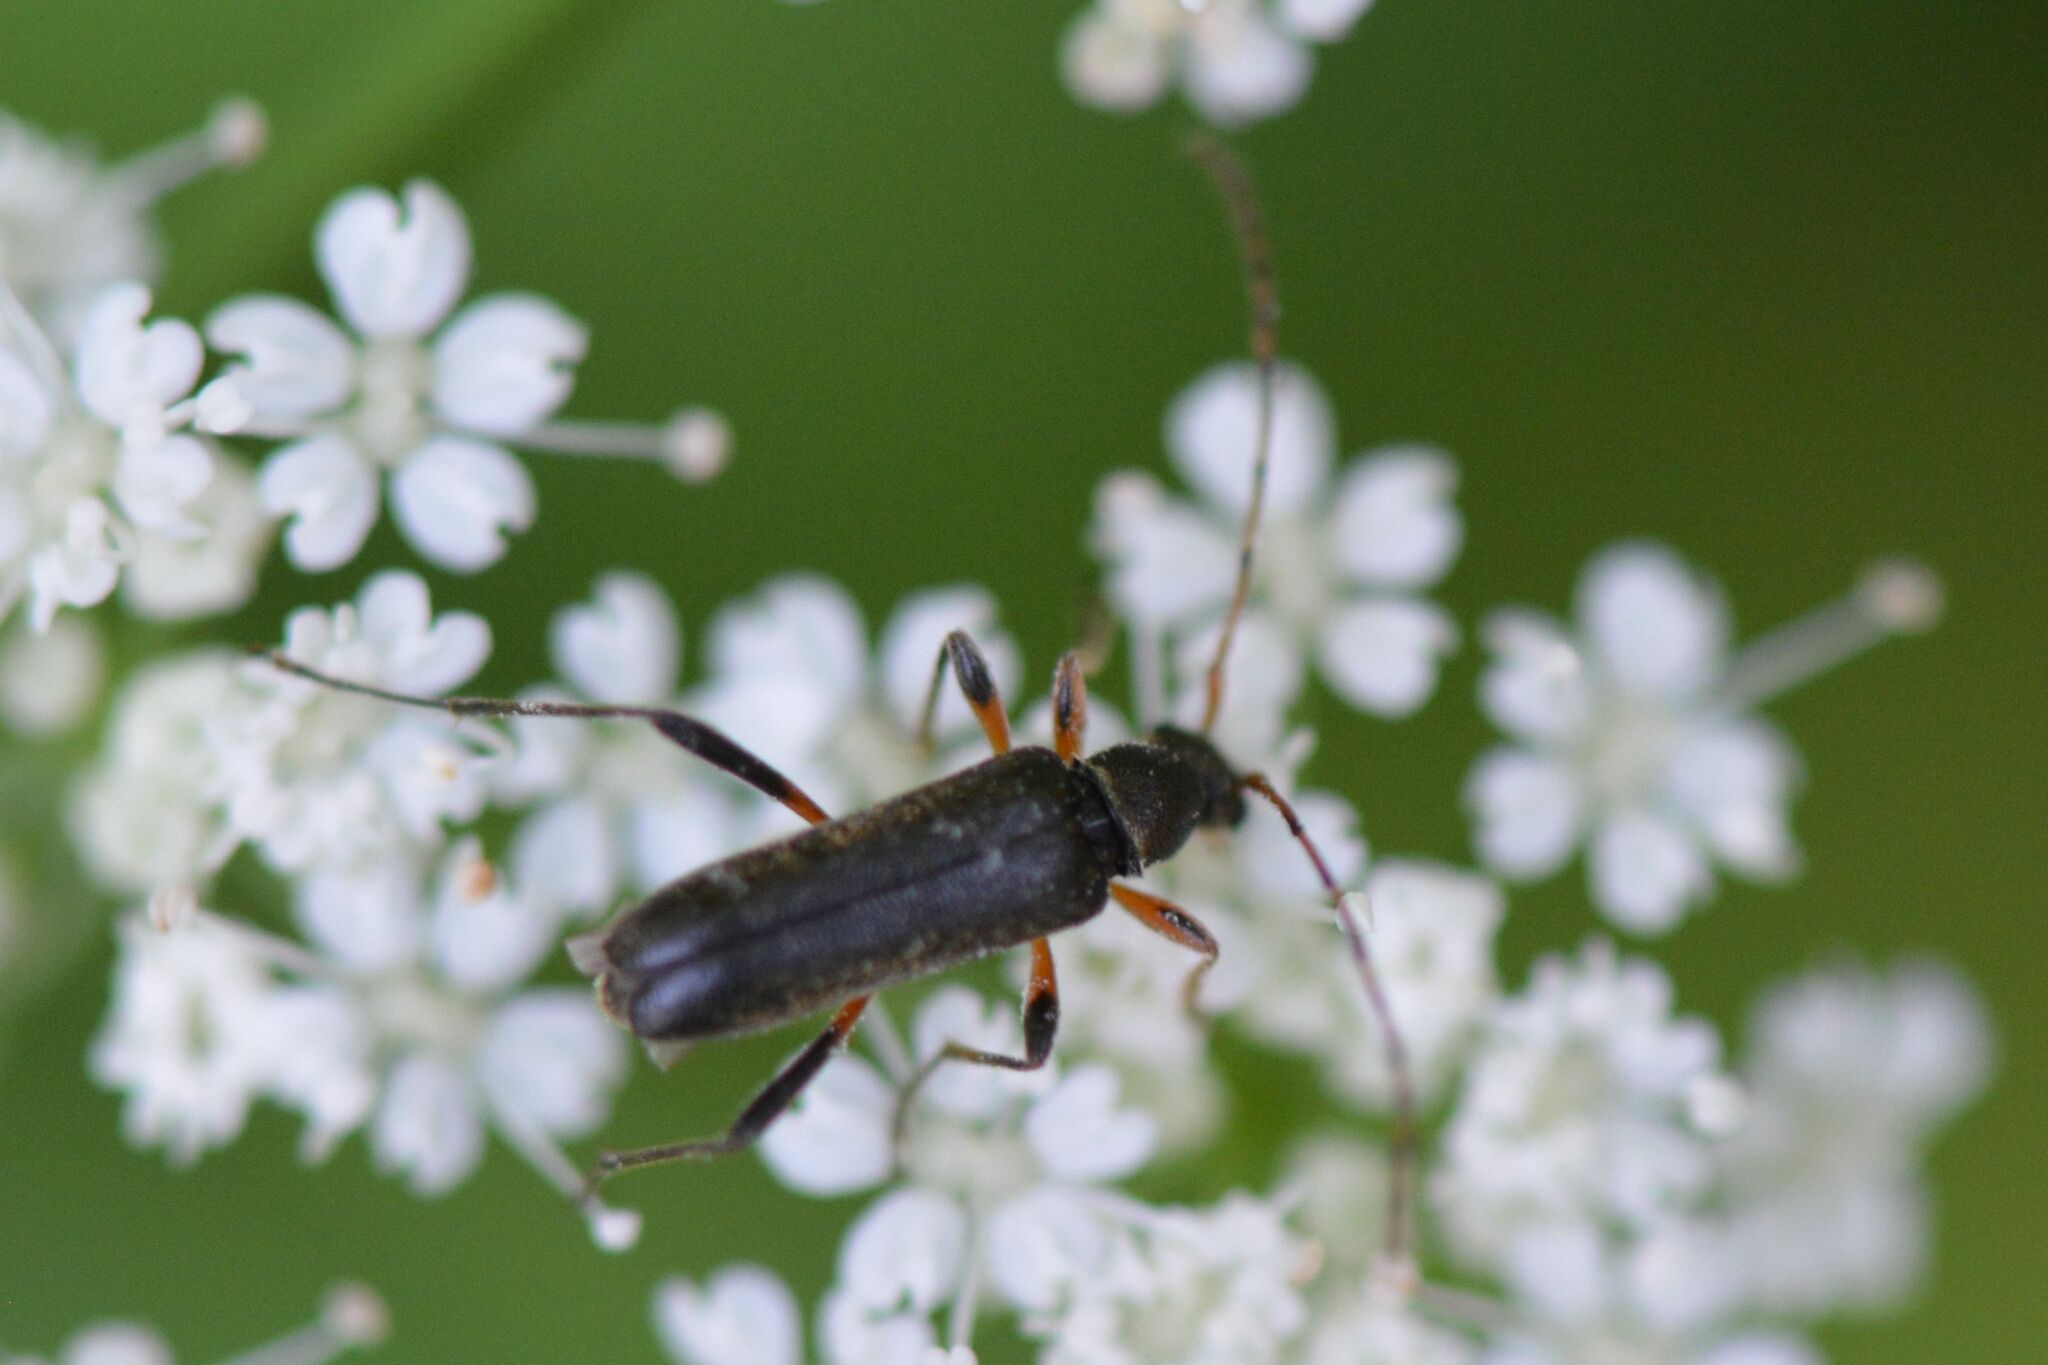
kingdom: Animalia
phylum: Arthropoda
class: Insecta
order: Coleoptera
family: Cerambycidae
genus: Grammoptera
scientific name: Grammoptera ruficornis
